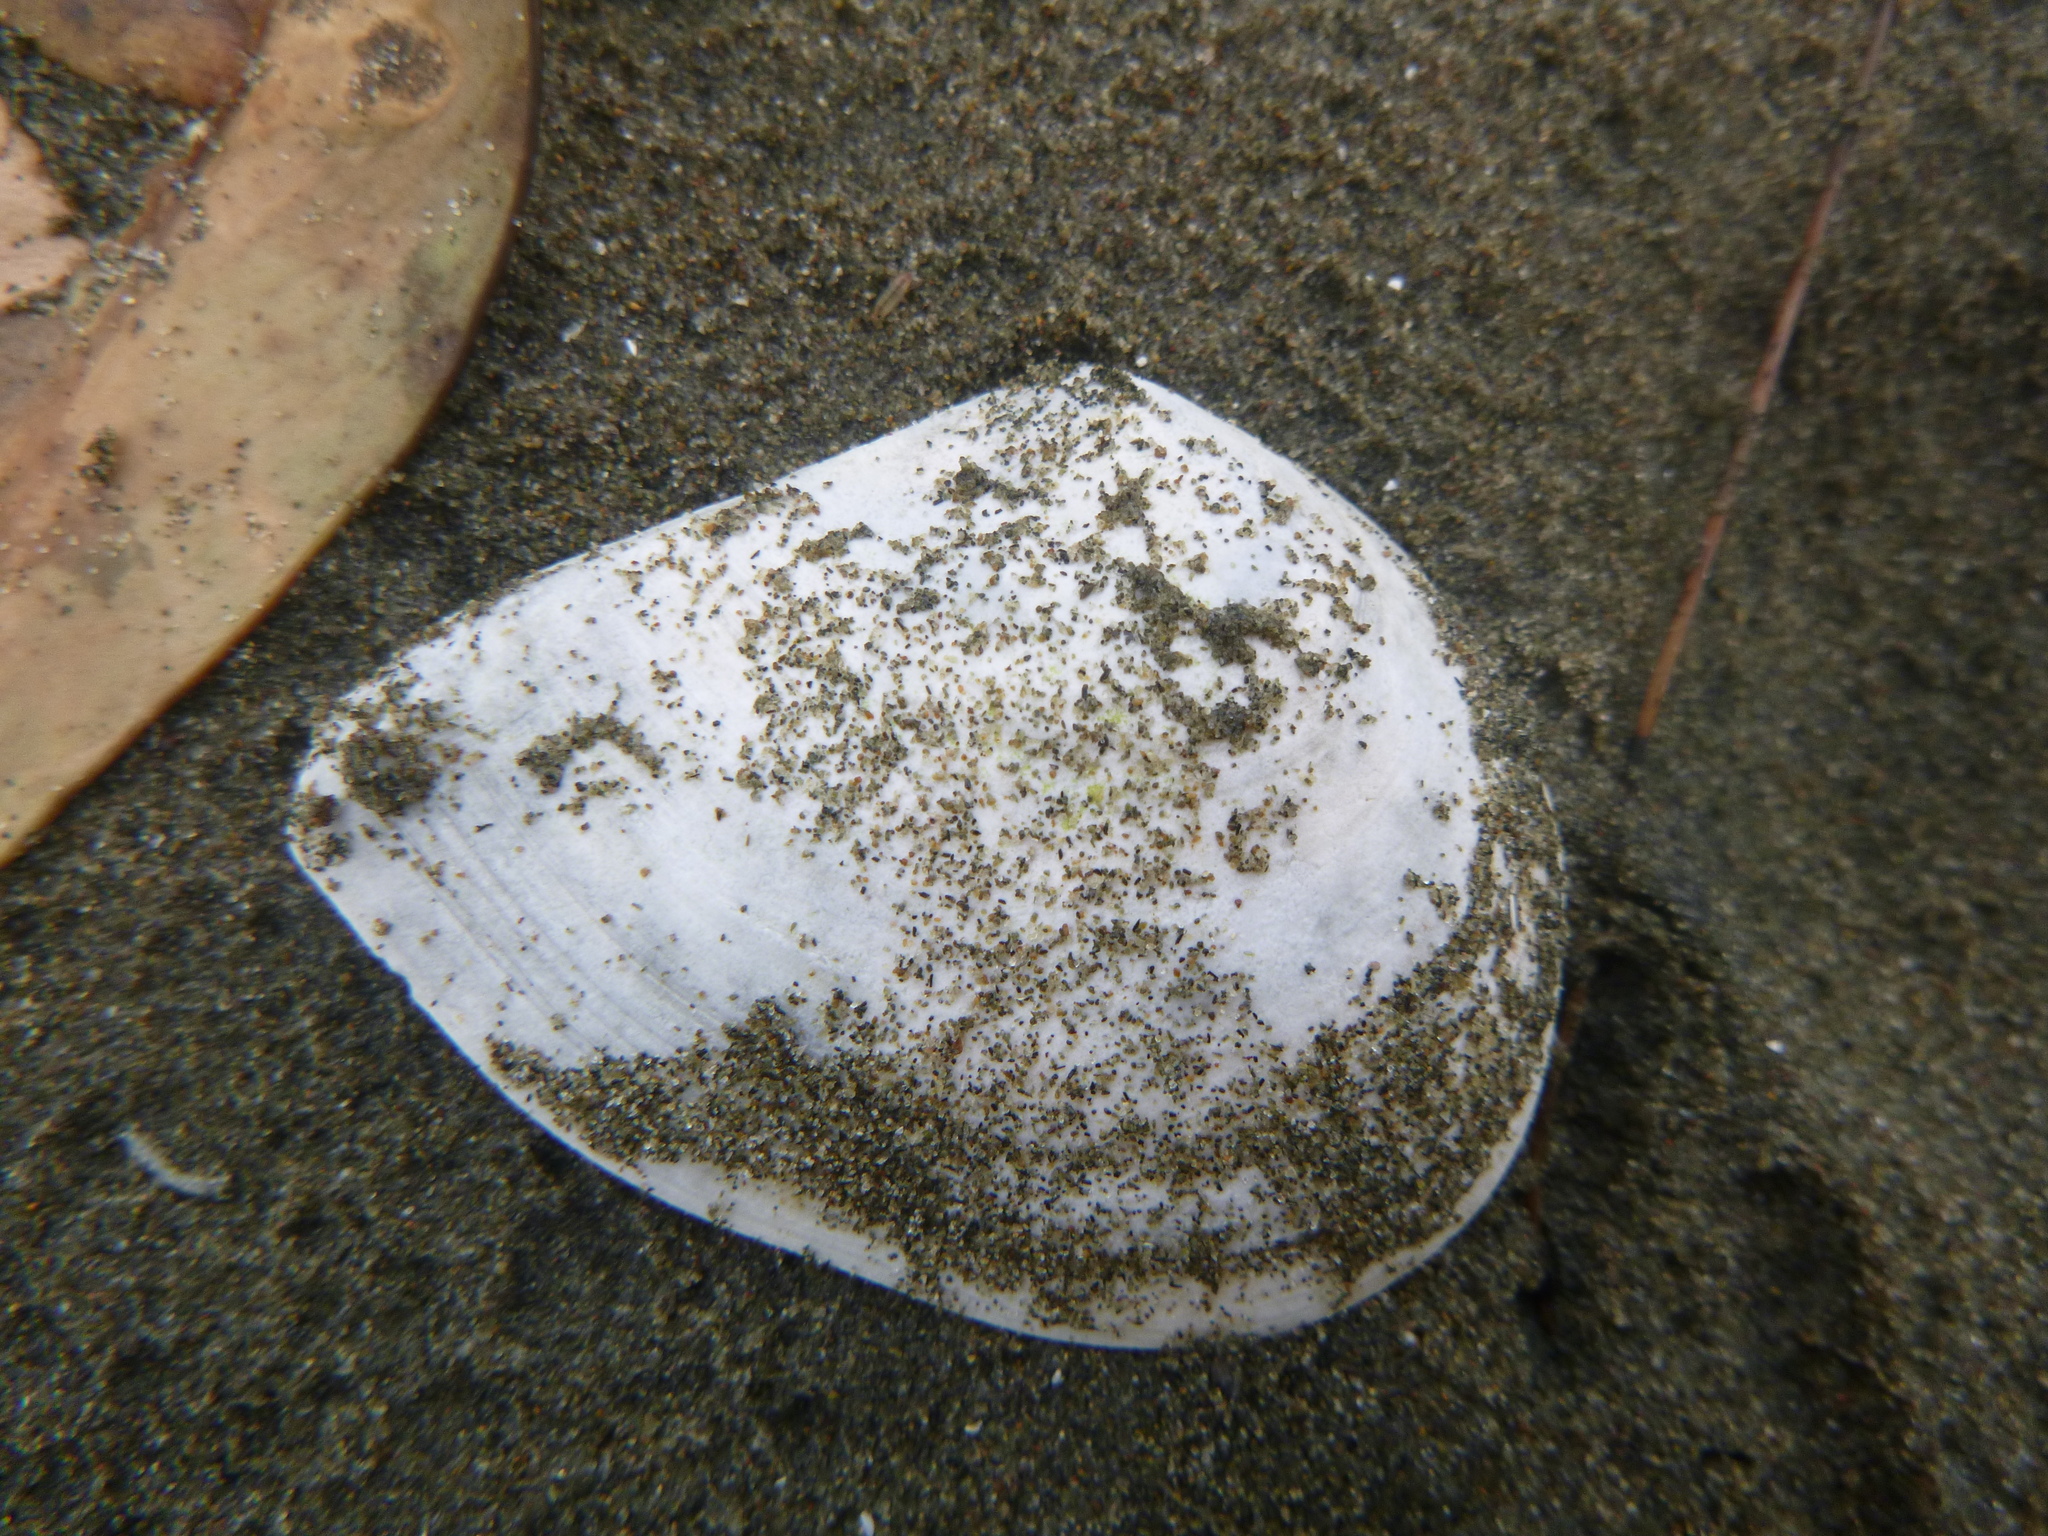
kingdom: Animalia
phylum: Mollusca
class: Bivalvia
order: Cardiida
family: Tellinidae
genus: Macomona
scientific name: Macomona liliana
